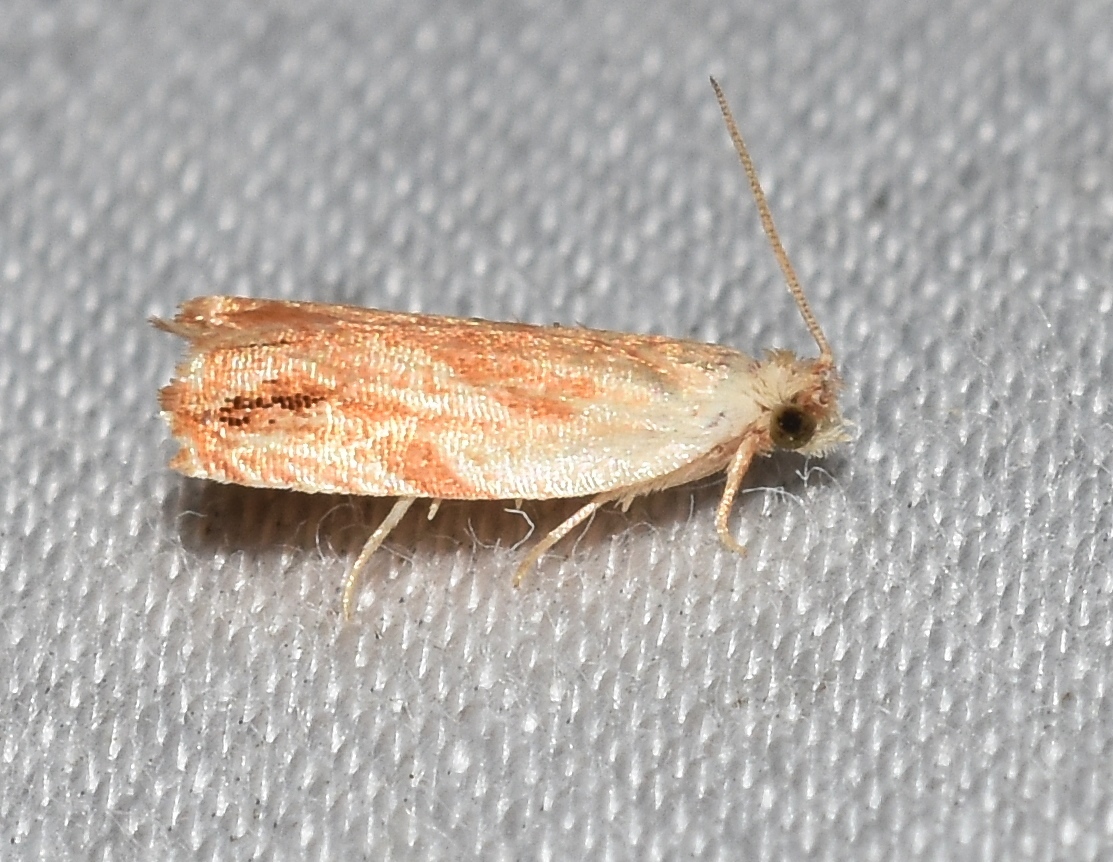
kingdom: Animalia
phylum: Arthropoda
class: Insecta
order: Lepidoptera
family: Tortricidae
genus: Ancylis
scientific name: Ancylis platanana
